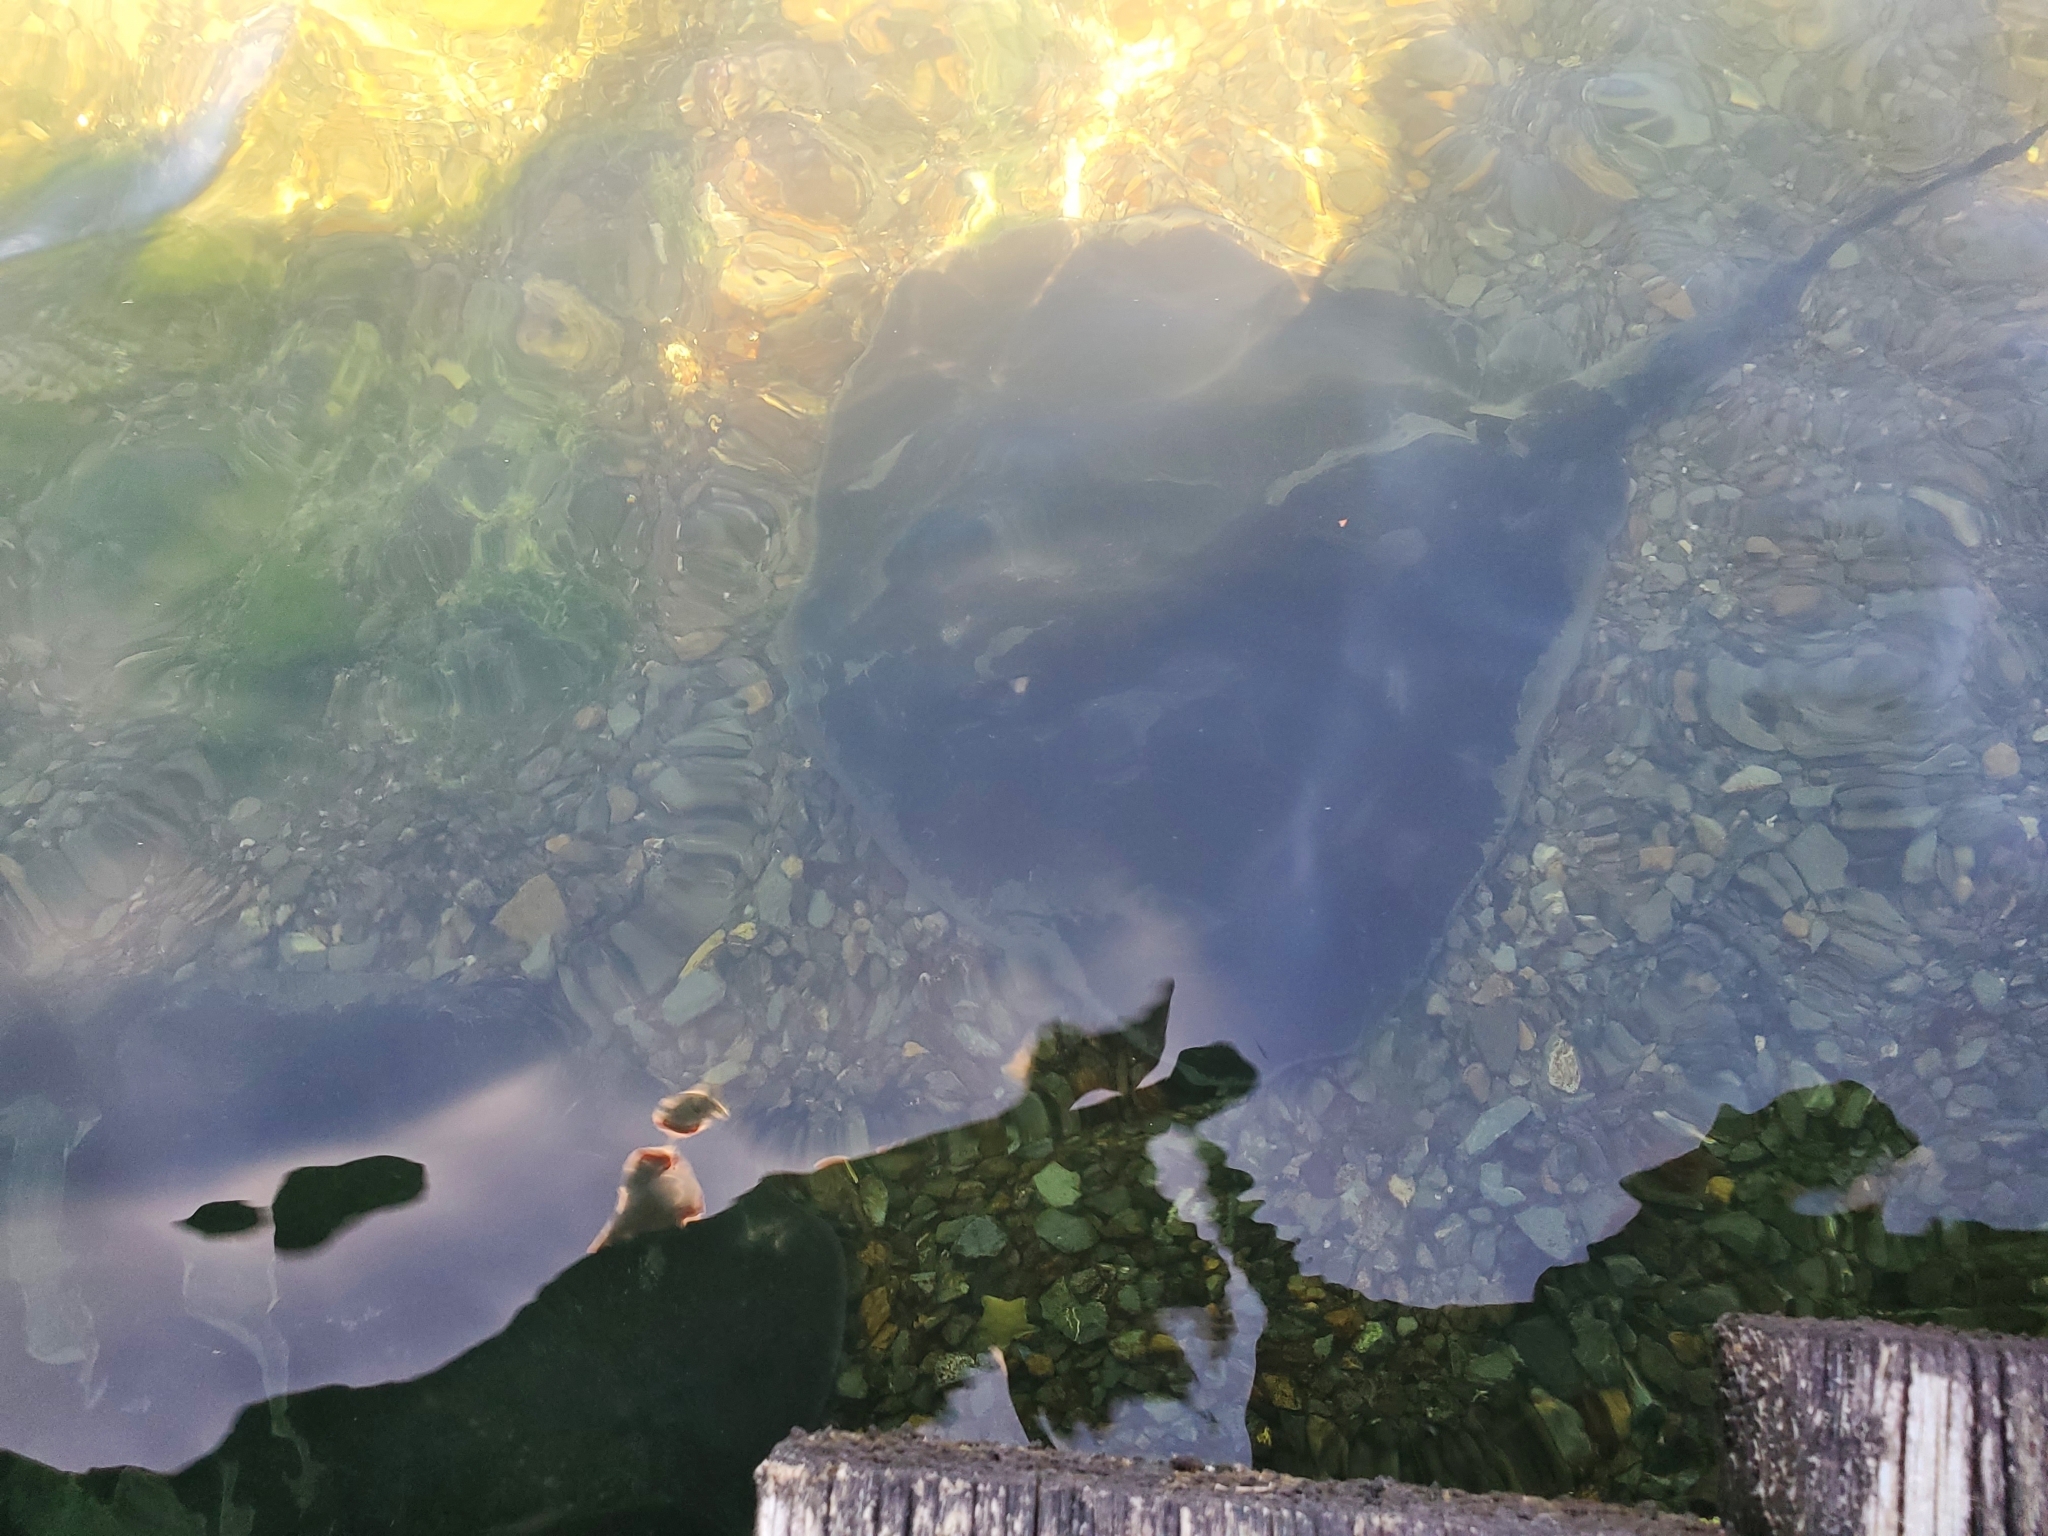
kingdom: Animalia
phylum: Chordata
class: Elasmobranchii
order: Myliobatiformes
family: Dasyatidae
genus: Bathytoshia
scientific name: Bathytoshia brevicaudata
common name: Short-tail stingray
